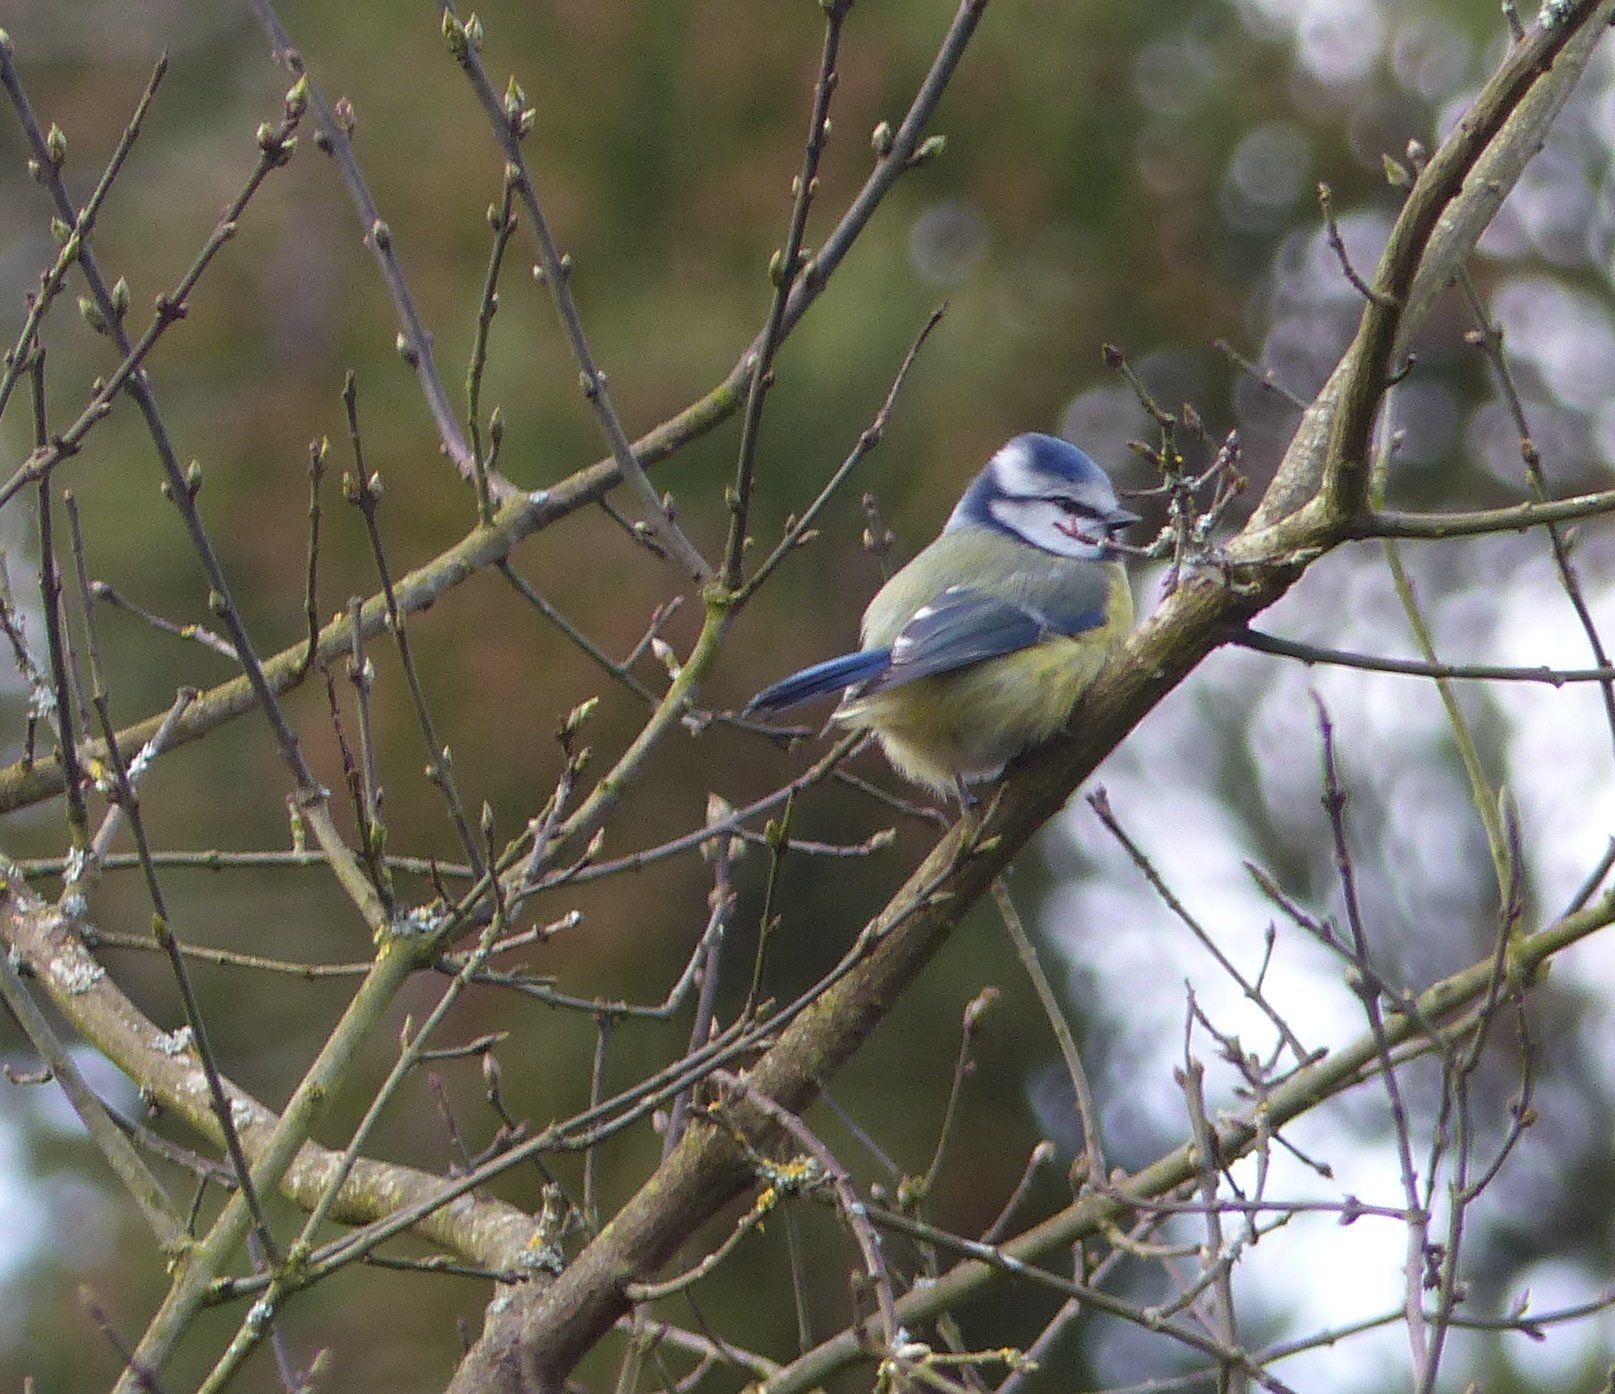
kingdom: Animalia
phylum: Chordata
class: Aves
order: Passeriformes
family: Paridae
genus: Cyanistes
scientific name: Cyanistes caeruleus
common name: Eurasian blue tit
